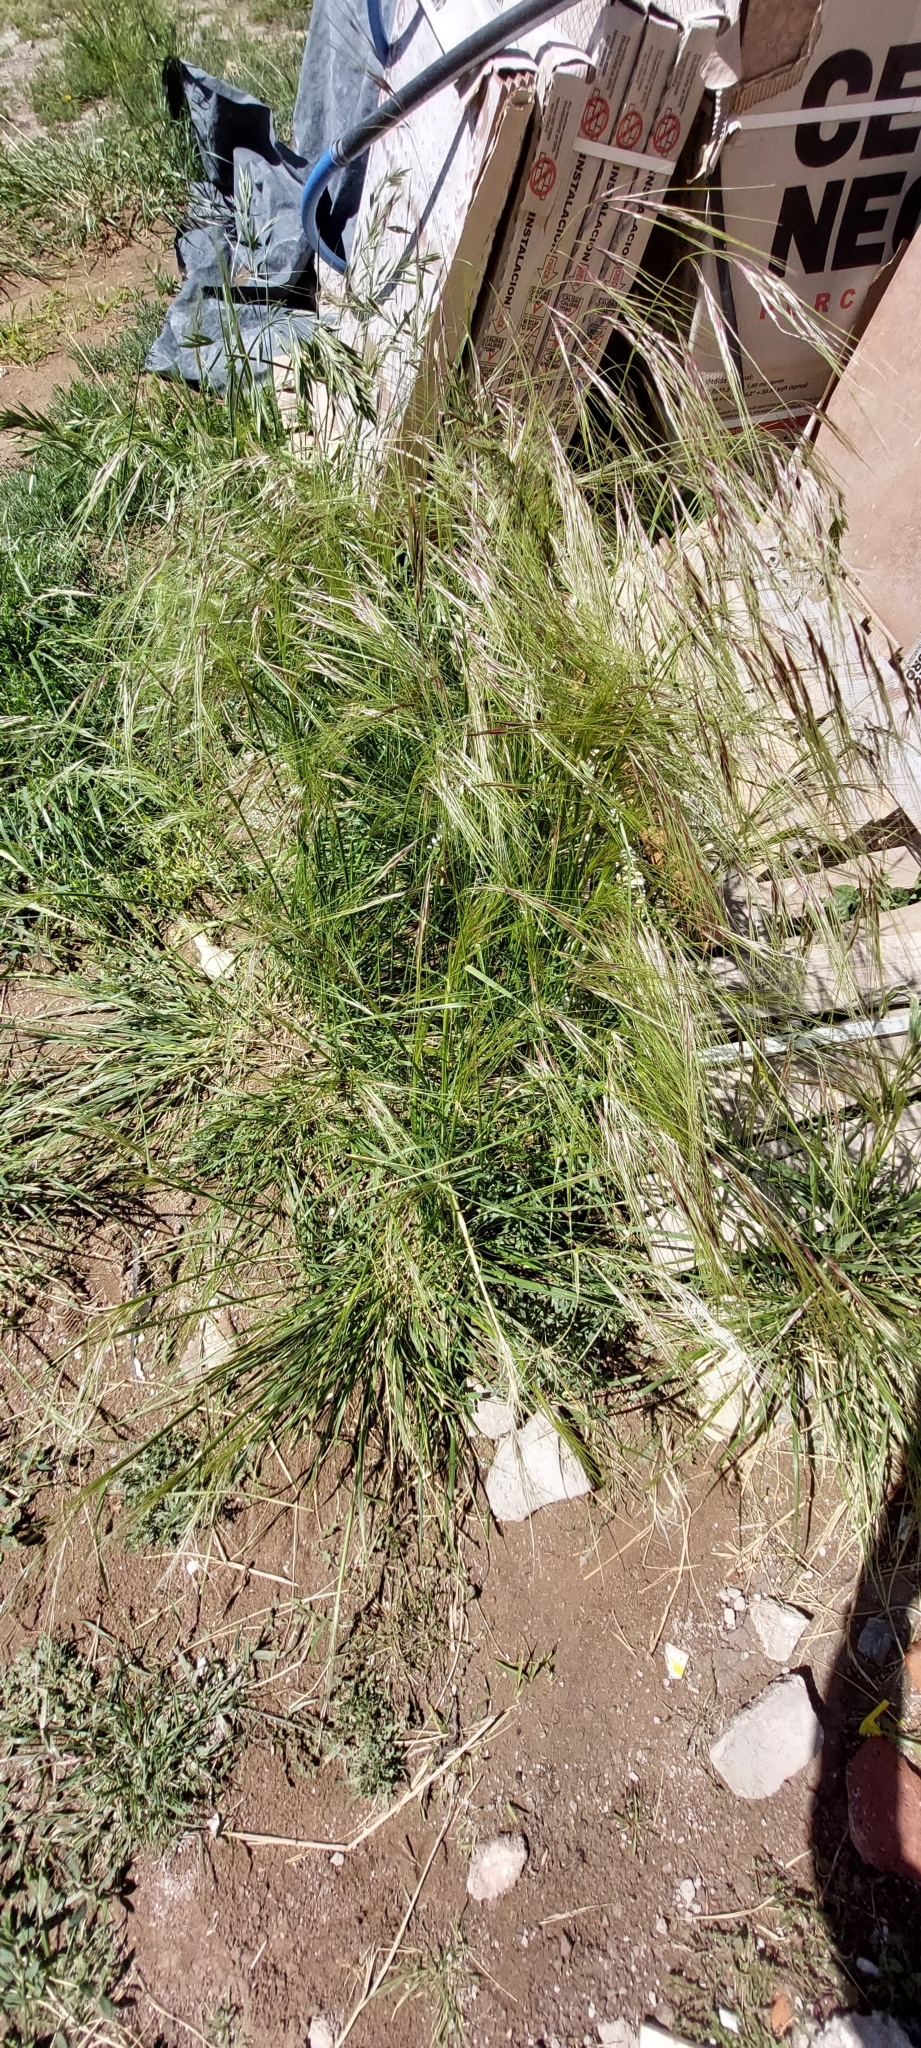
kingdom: Plantae
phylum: Tracheophyta
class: Liliopsida
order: Poales
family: Poaceae
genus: Nassella
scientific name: Nassella neesiana
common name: American needle-grass
